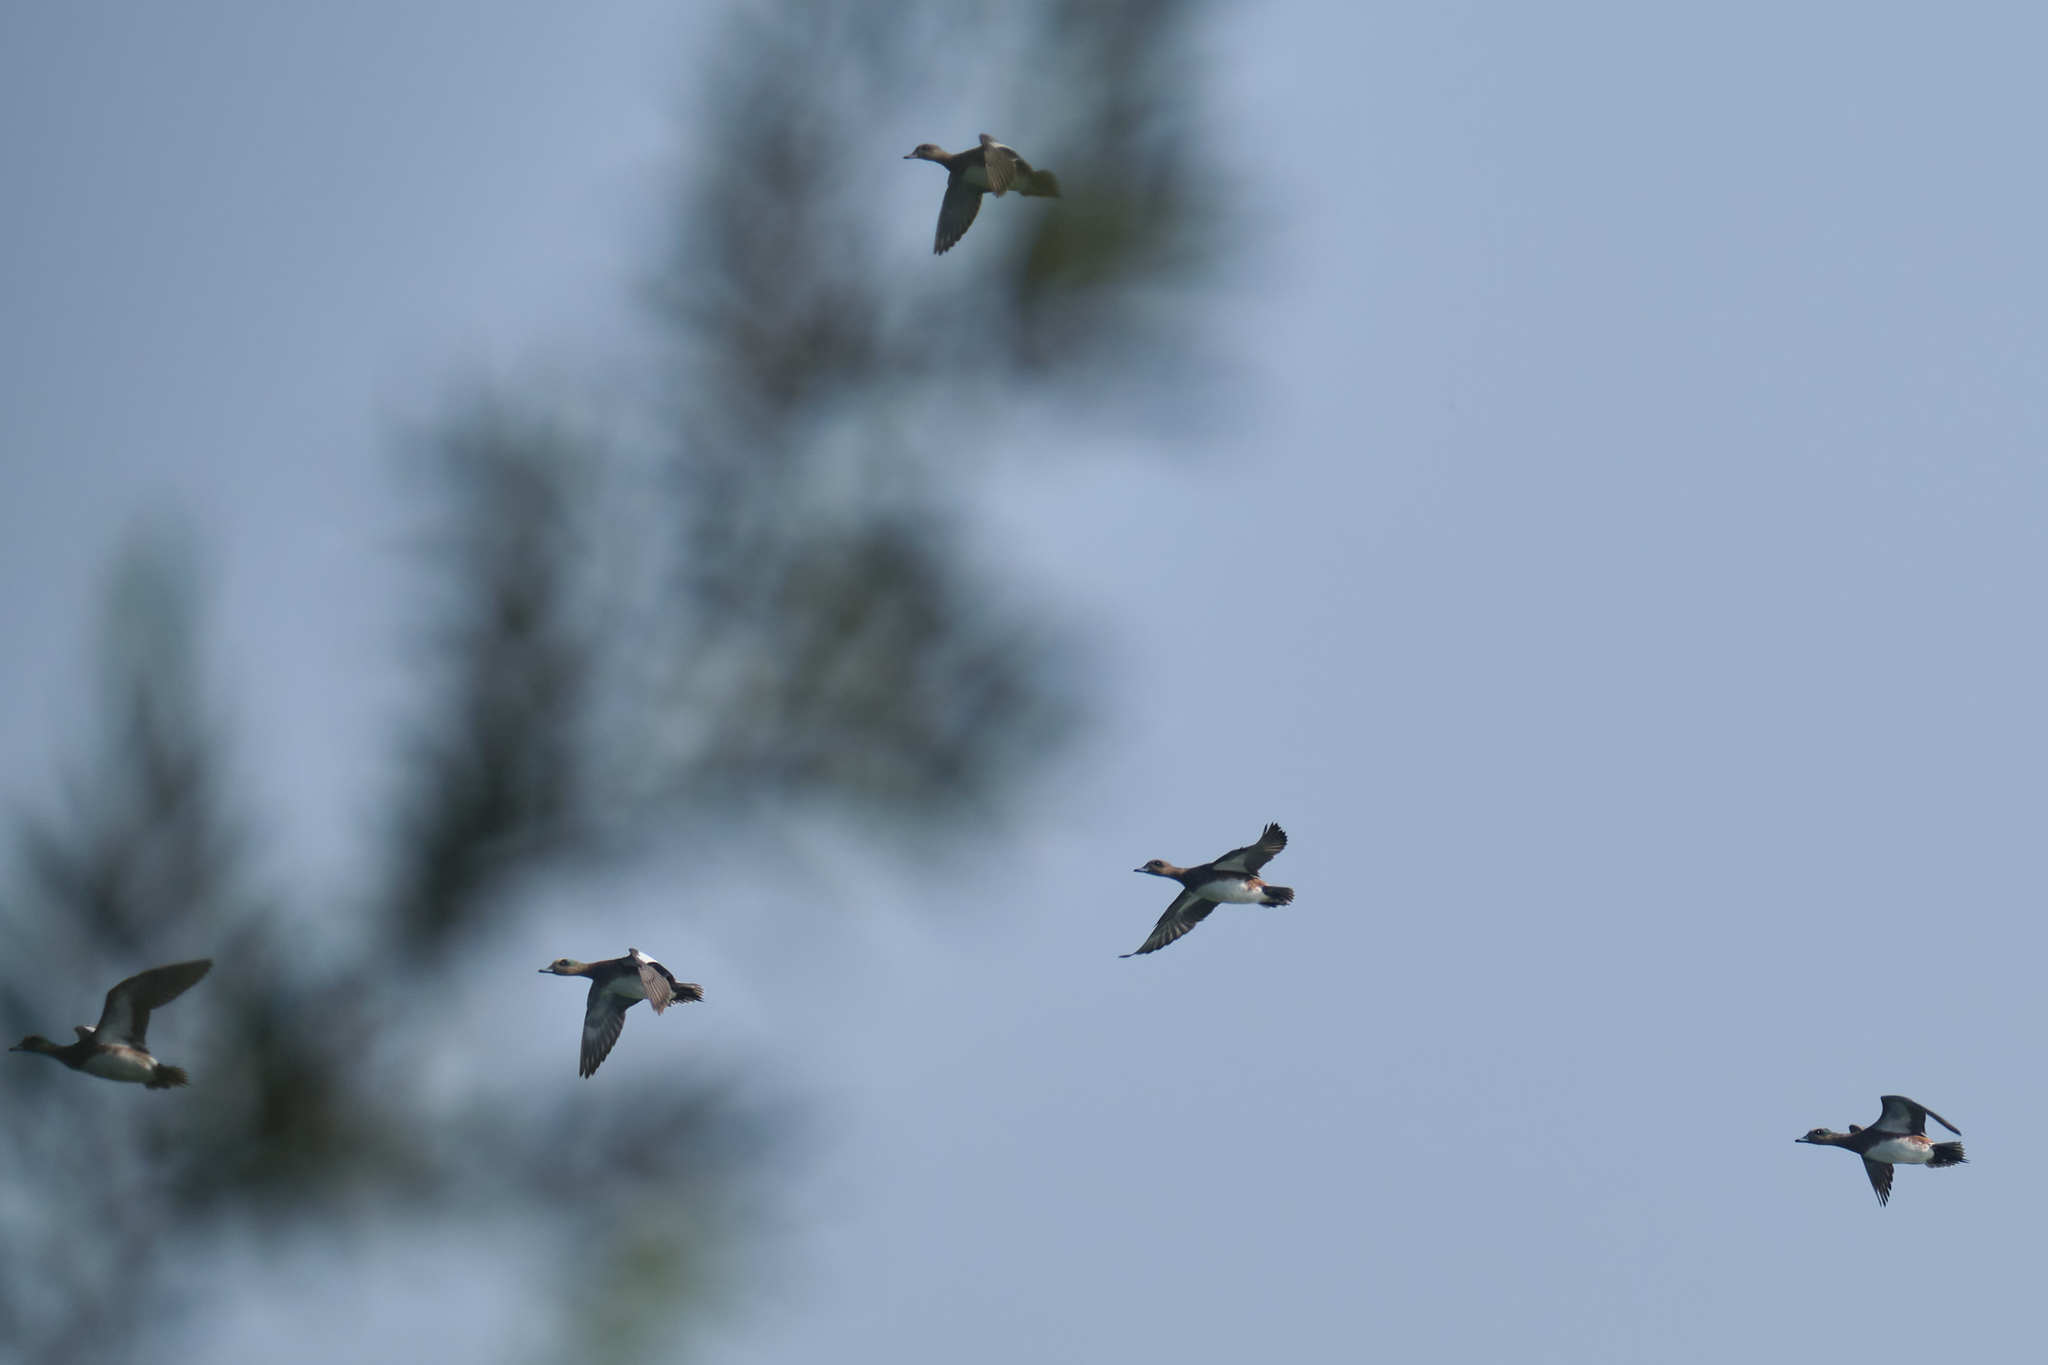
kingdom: Animalia
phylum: Chordata
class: Aves
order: Anseriformes
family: Anatidae
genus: Mareca
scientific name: Mareca americana
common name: American wigeon
